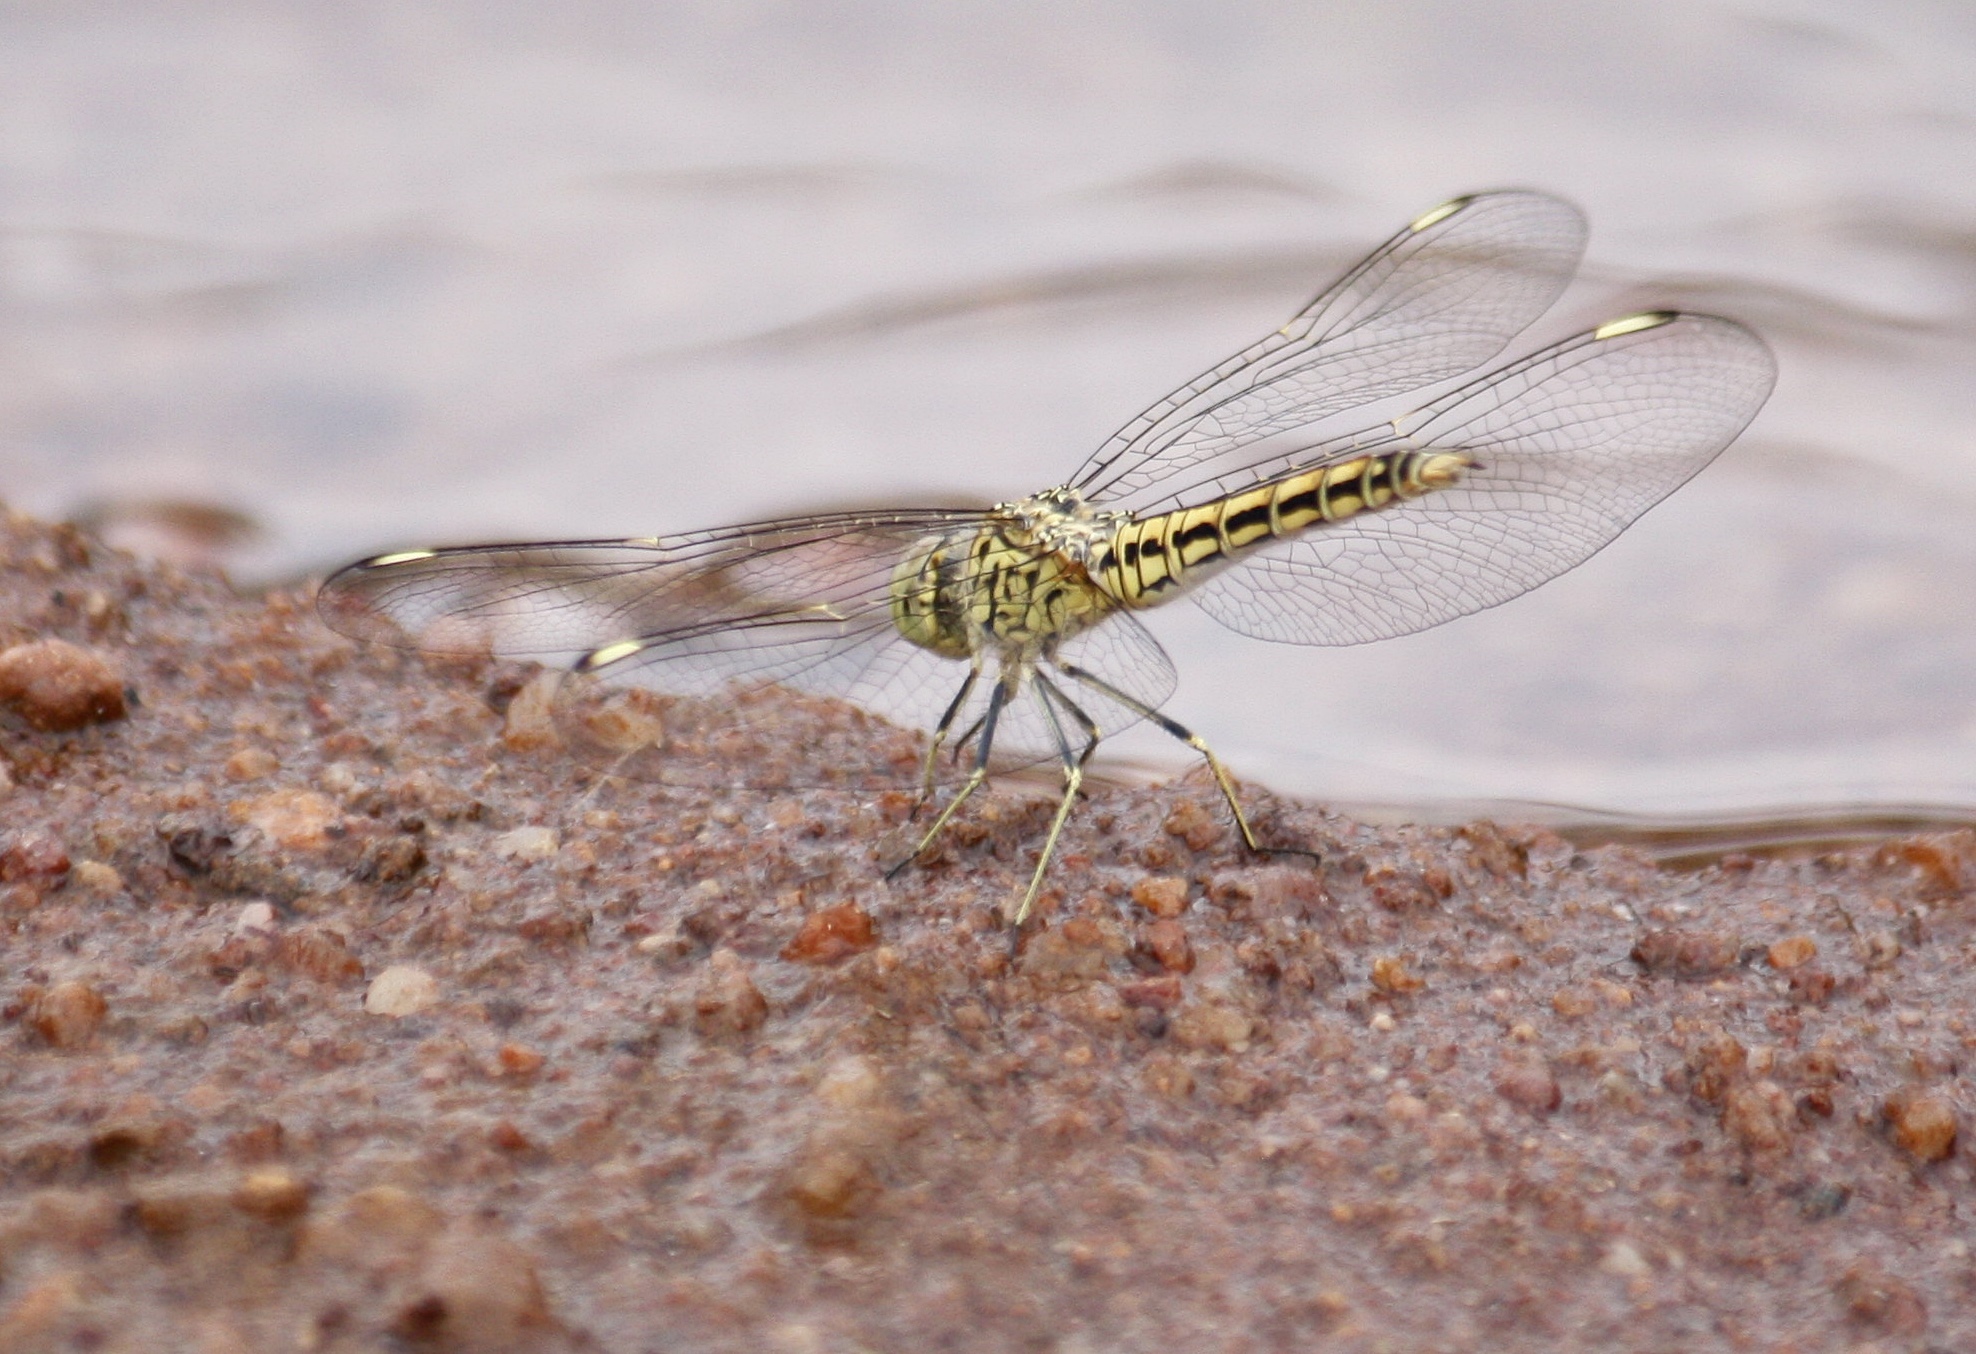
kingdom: Animalia
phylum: Arthropoda
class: Insecta
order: Odonata
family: Libellulidae
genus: Brachythemis
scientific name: Brachythemis leucosticta
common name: Banded groundling
